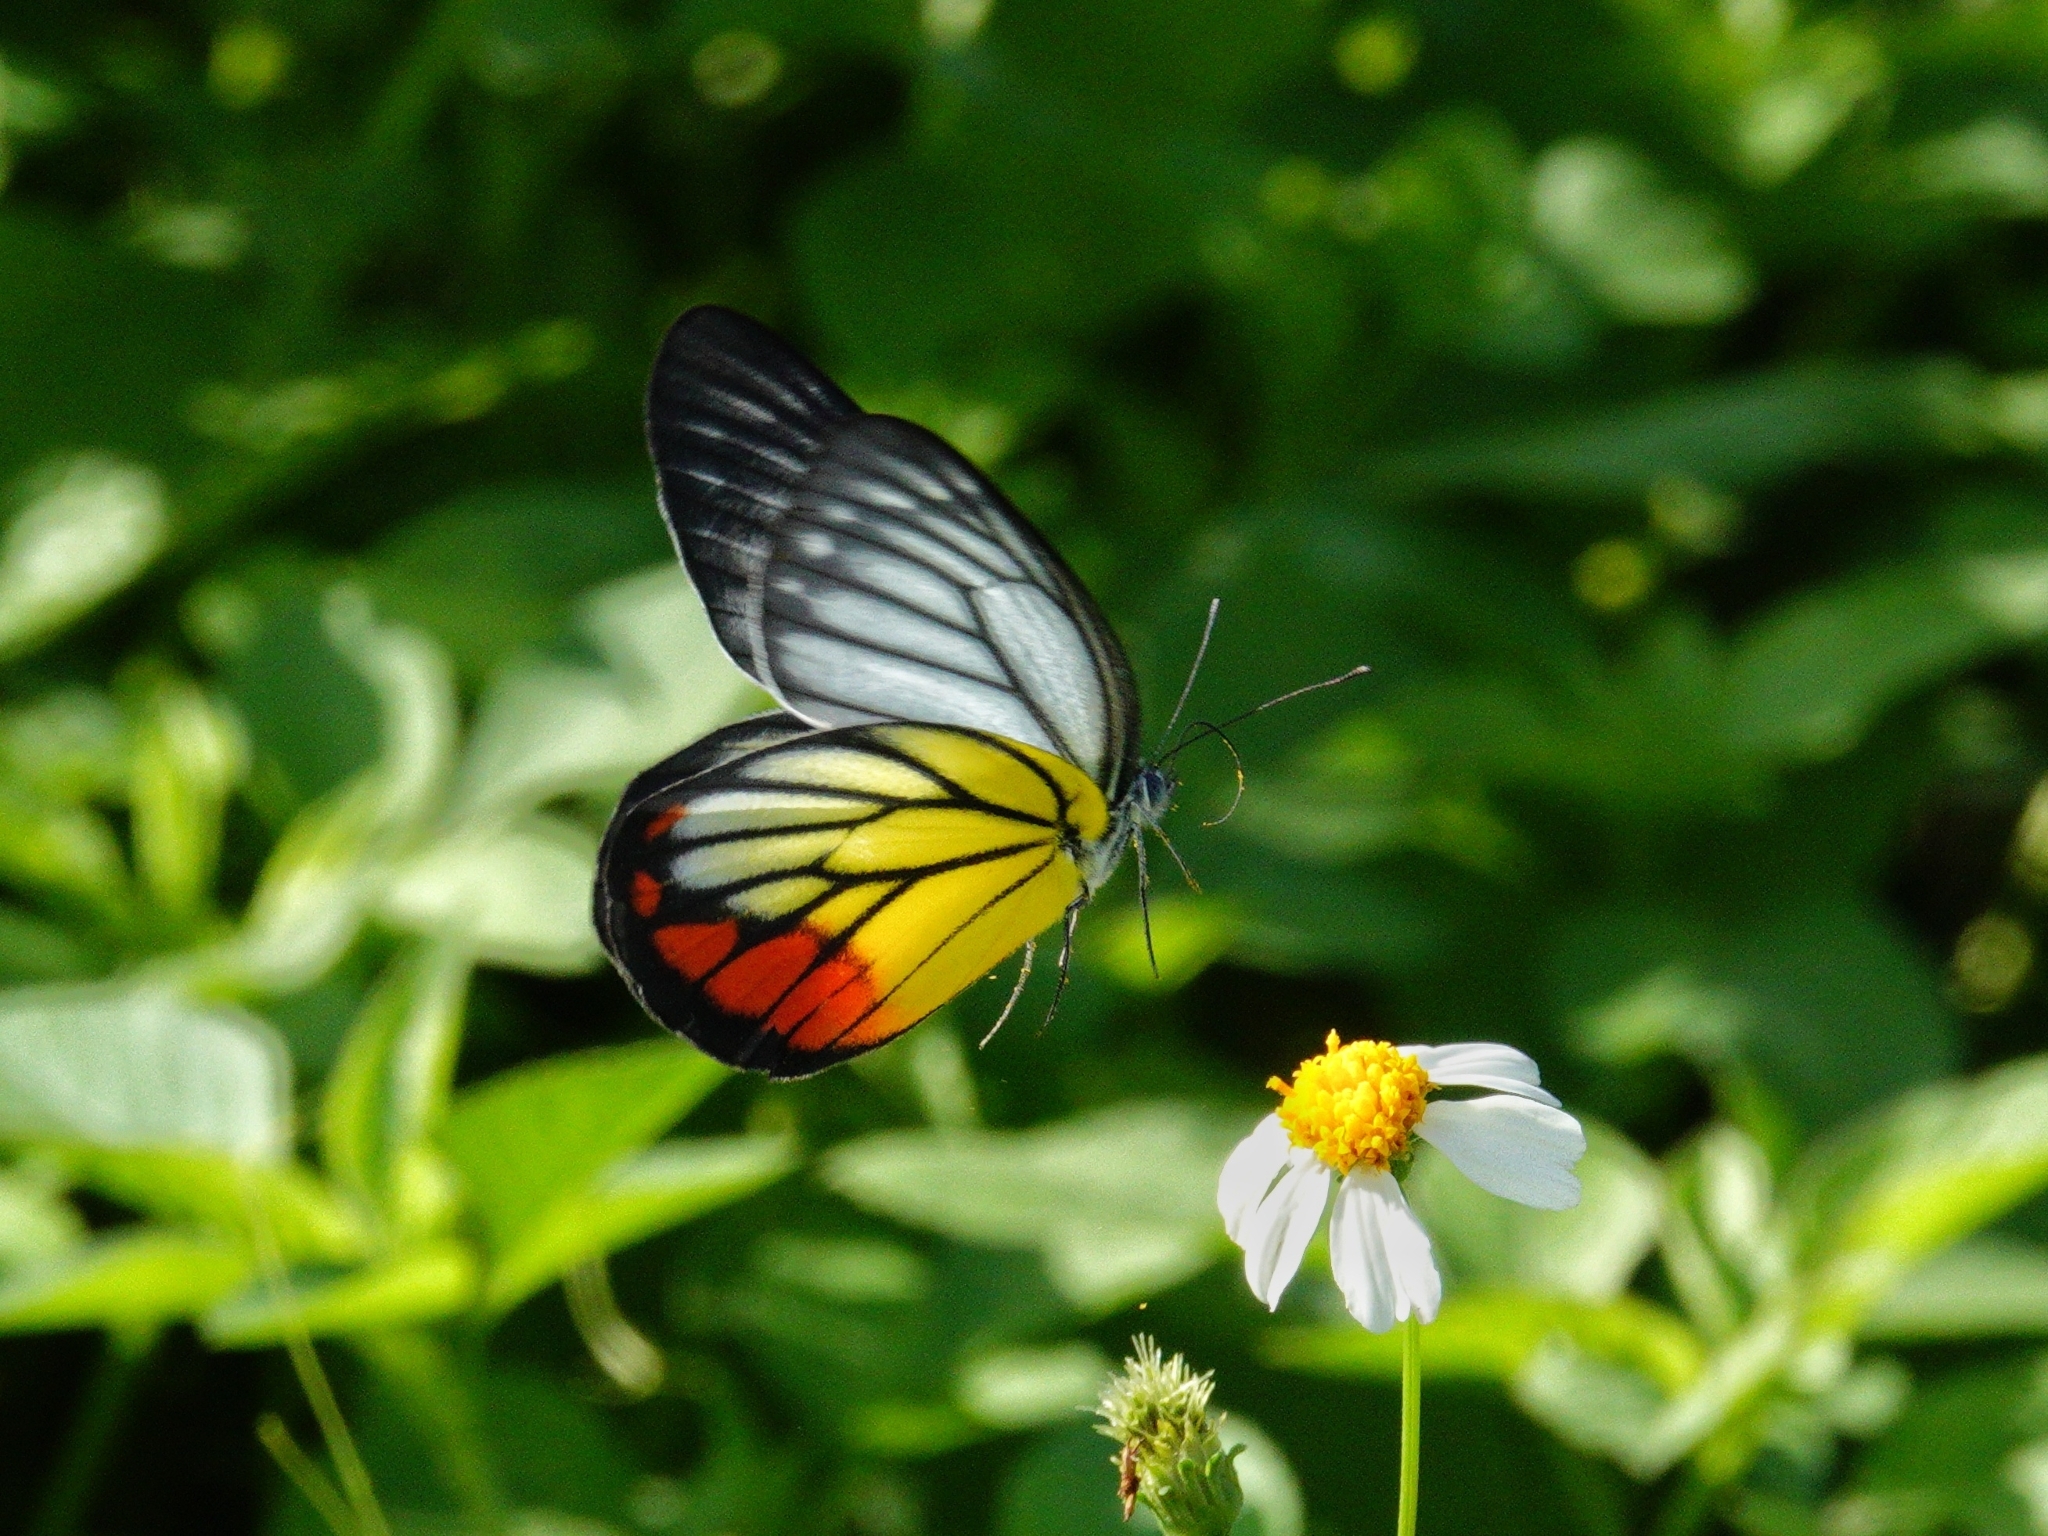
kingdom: Animalia
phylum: Arthropoda
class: Insecta
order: Lepidoptera
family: Pieridae
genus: Delias
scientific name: Delias hyparete
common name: Painted jezebel
